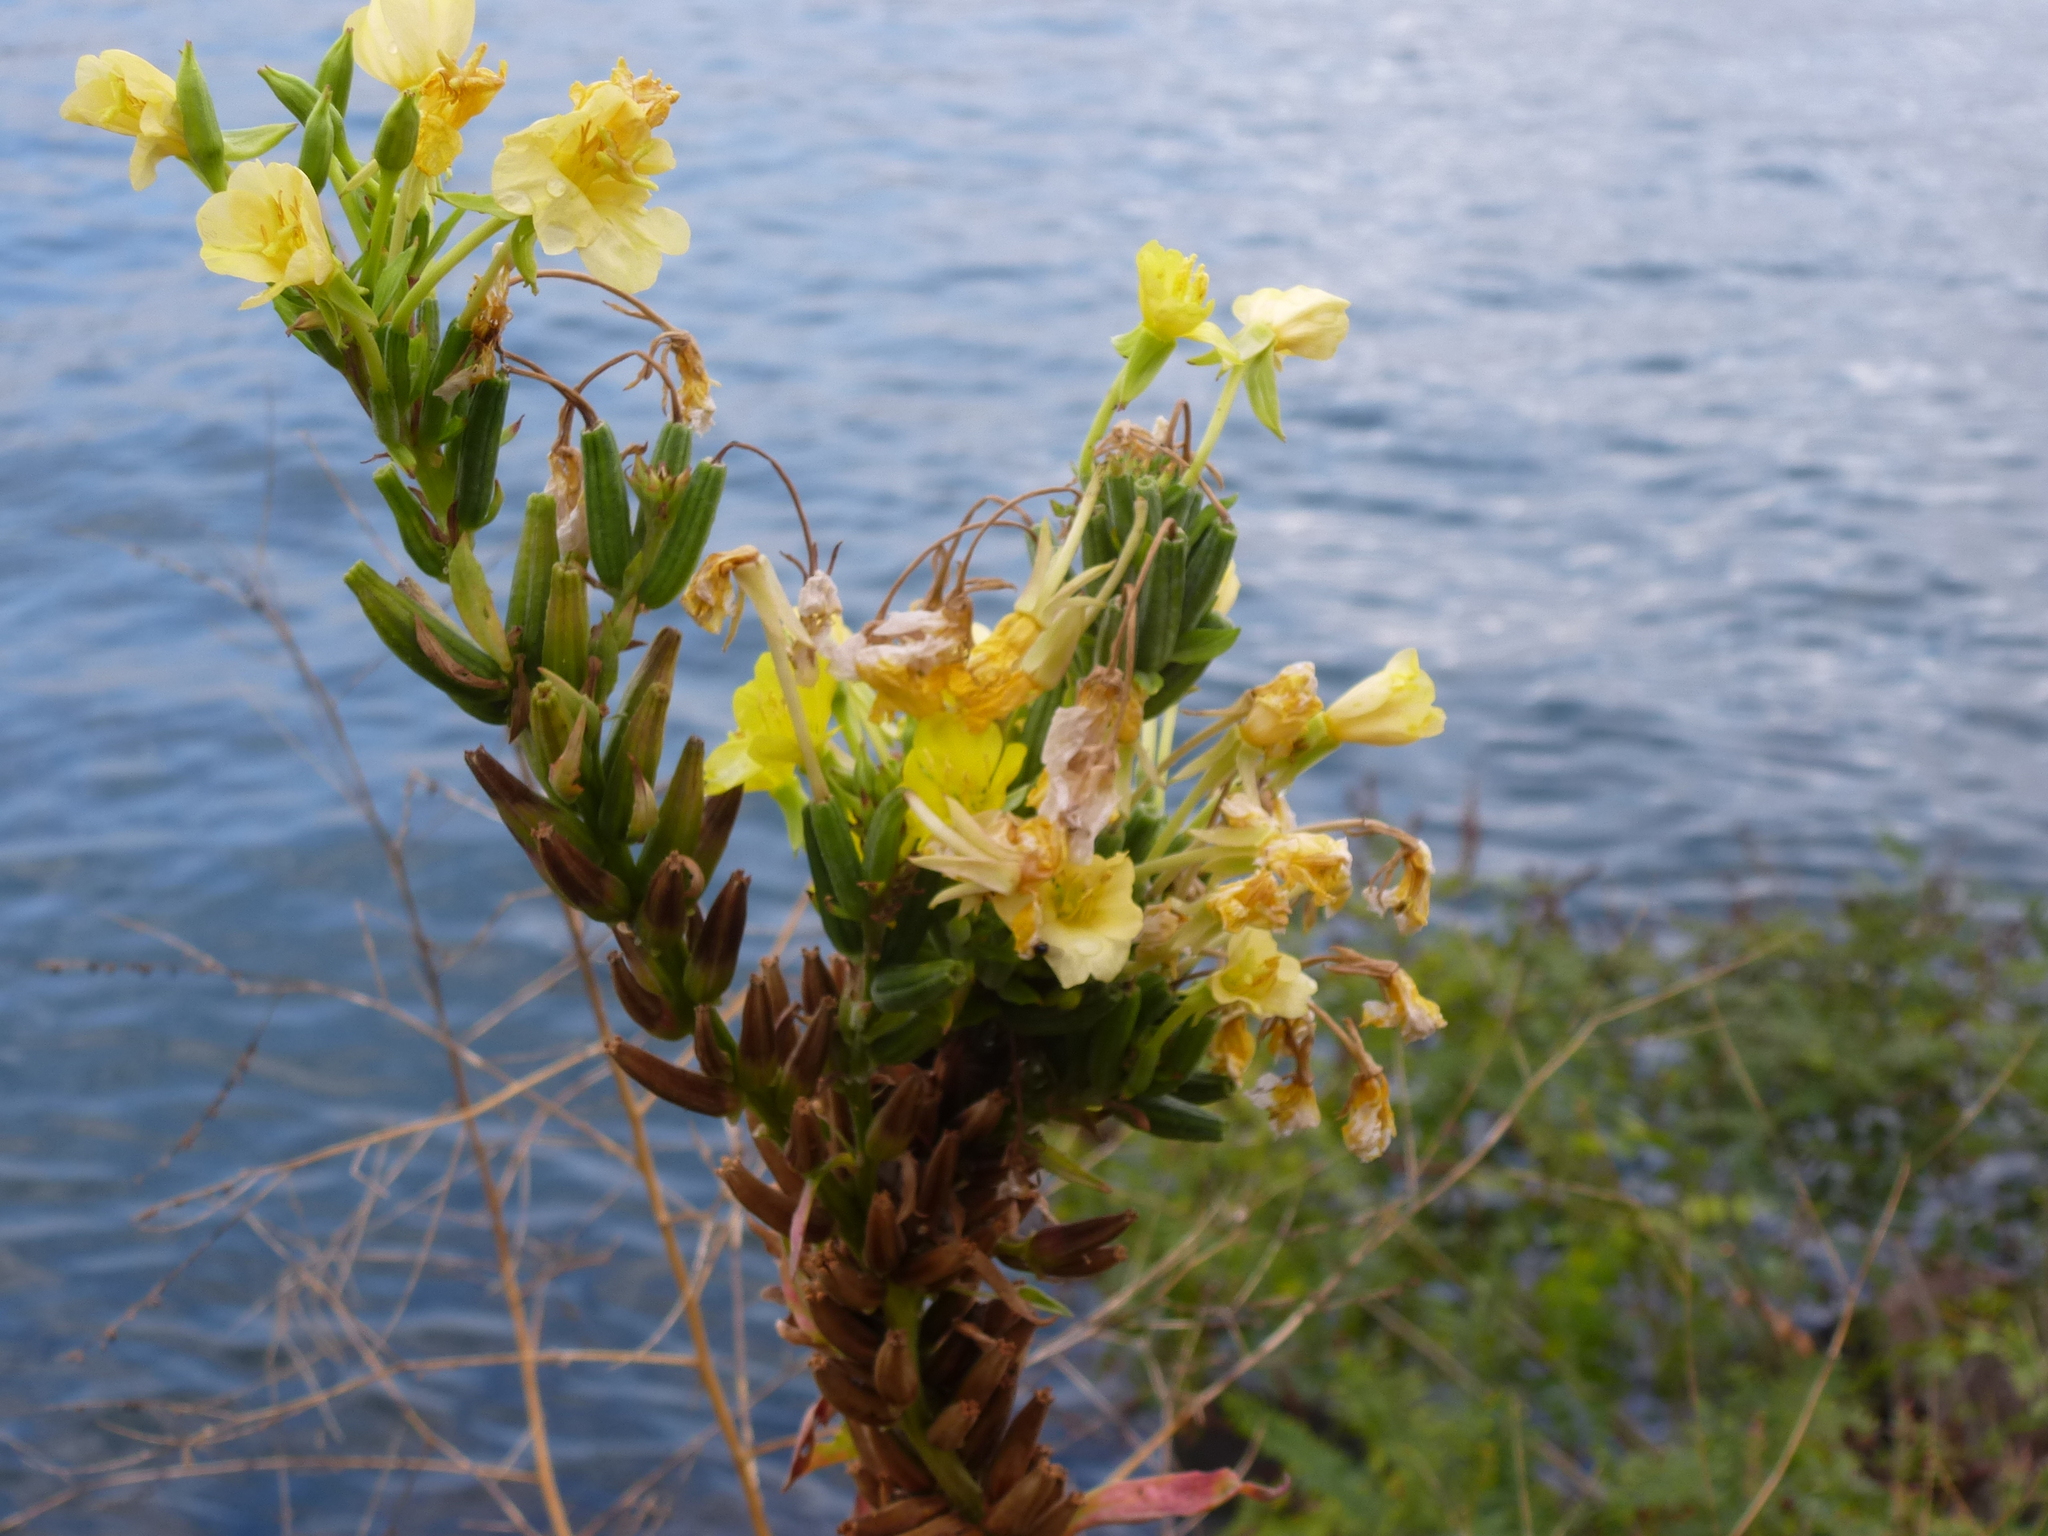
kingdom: Plantae
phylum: Tracheophyta
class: Magnoliopsida
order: Myrtales
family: Onagraceae
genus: Oenothera
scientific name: Oenothera biennis
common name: Common evening-primrose
